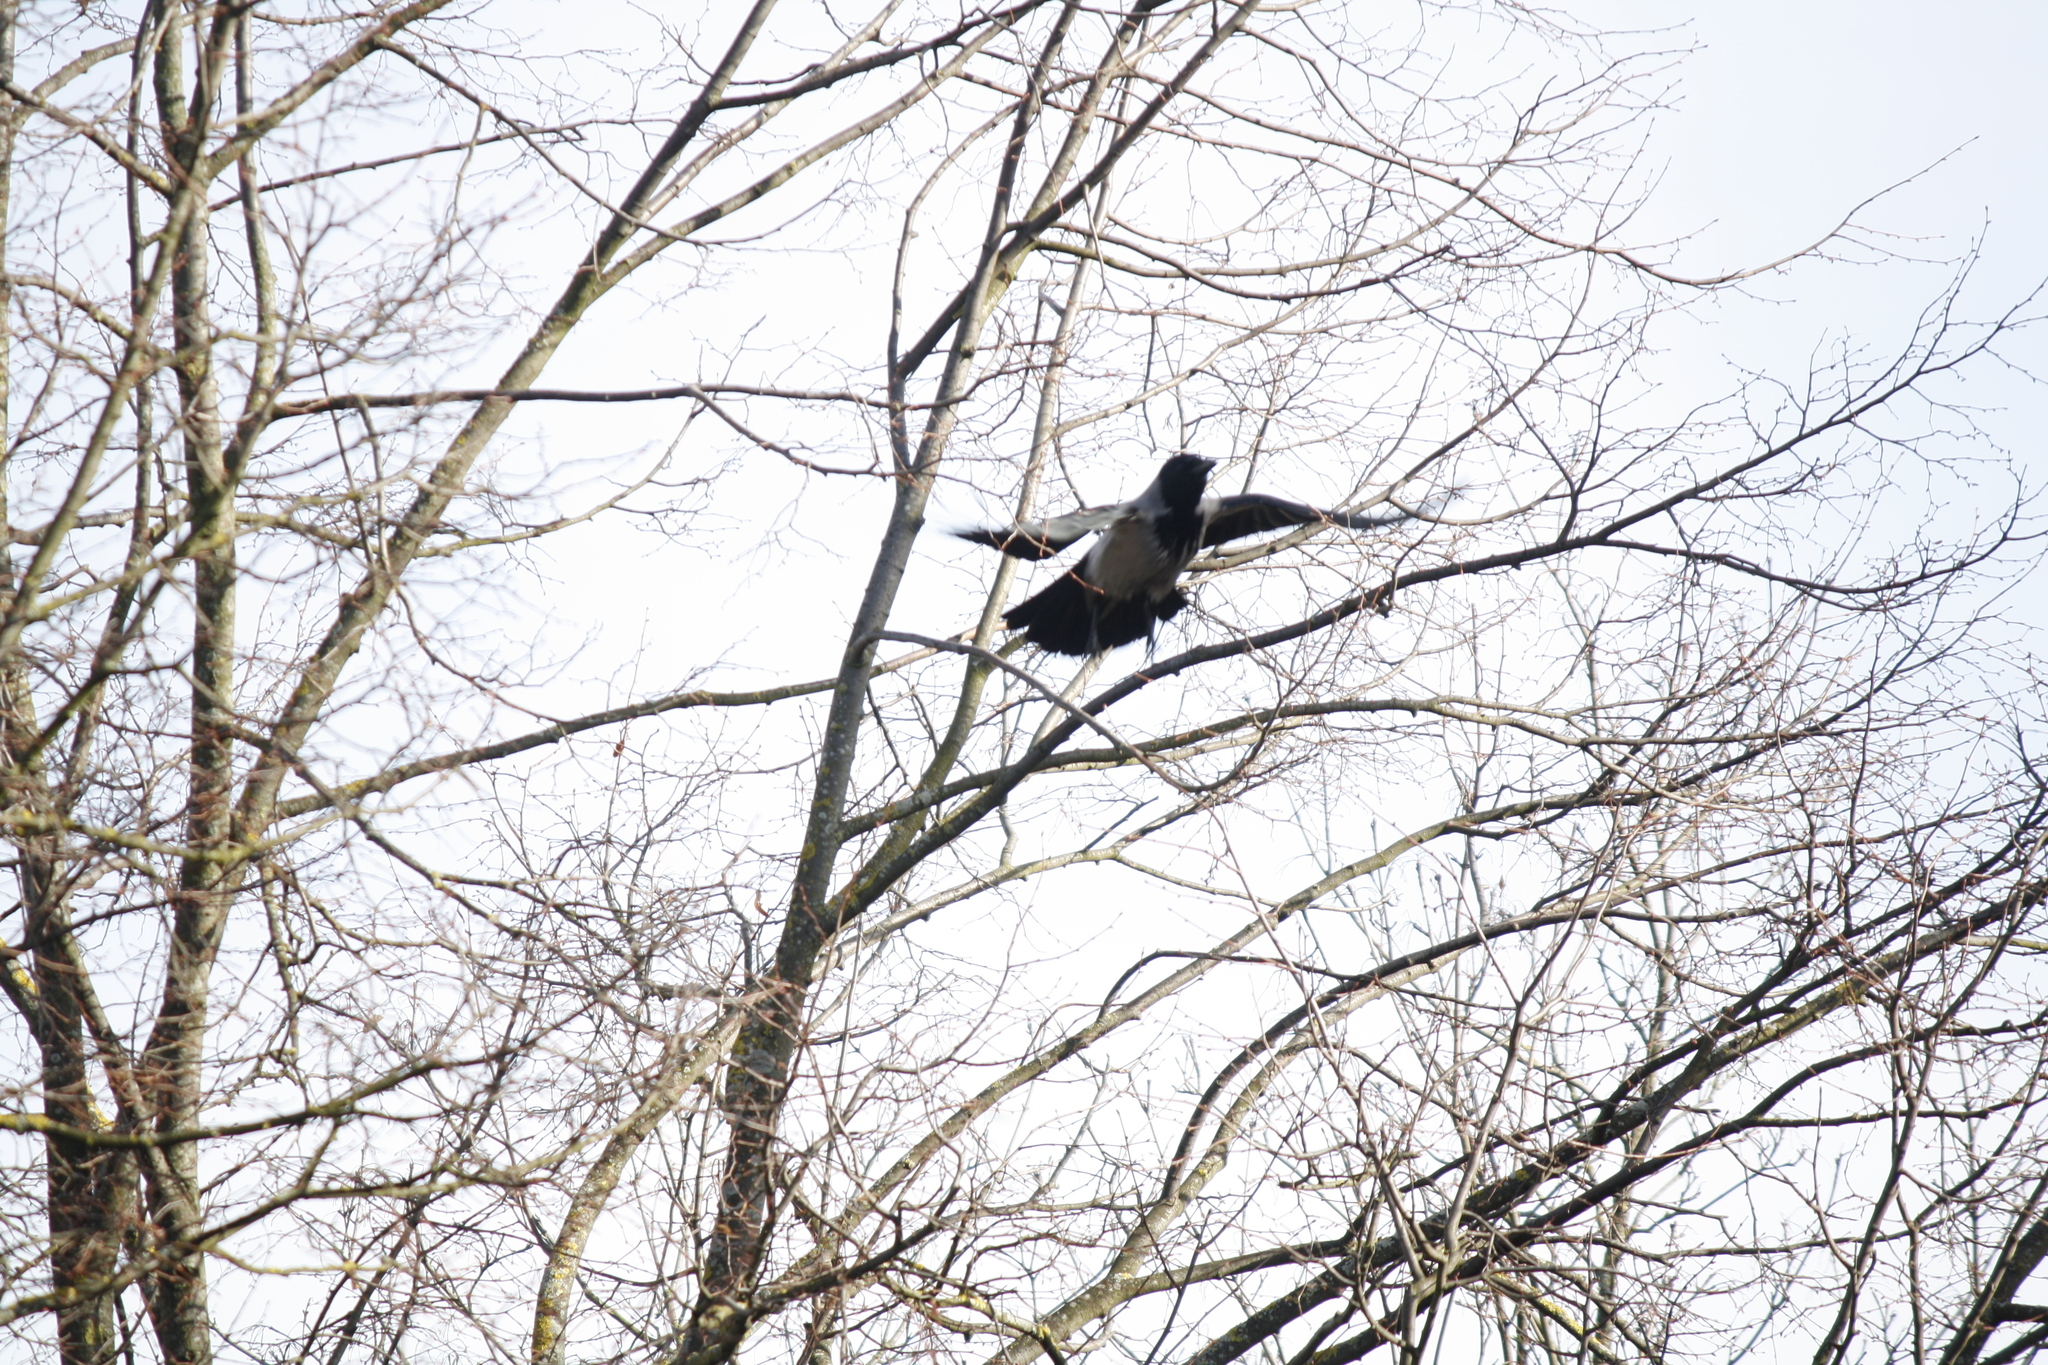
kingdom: Animalia
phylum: Chordata
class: Aves
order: Passeriformes
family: Corvidae
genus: Corvus
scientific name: Corvus cornix
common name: Hooded crow
